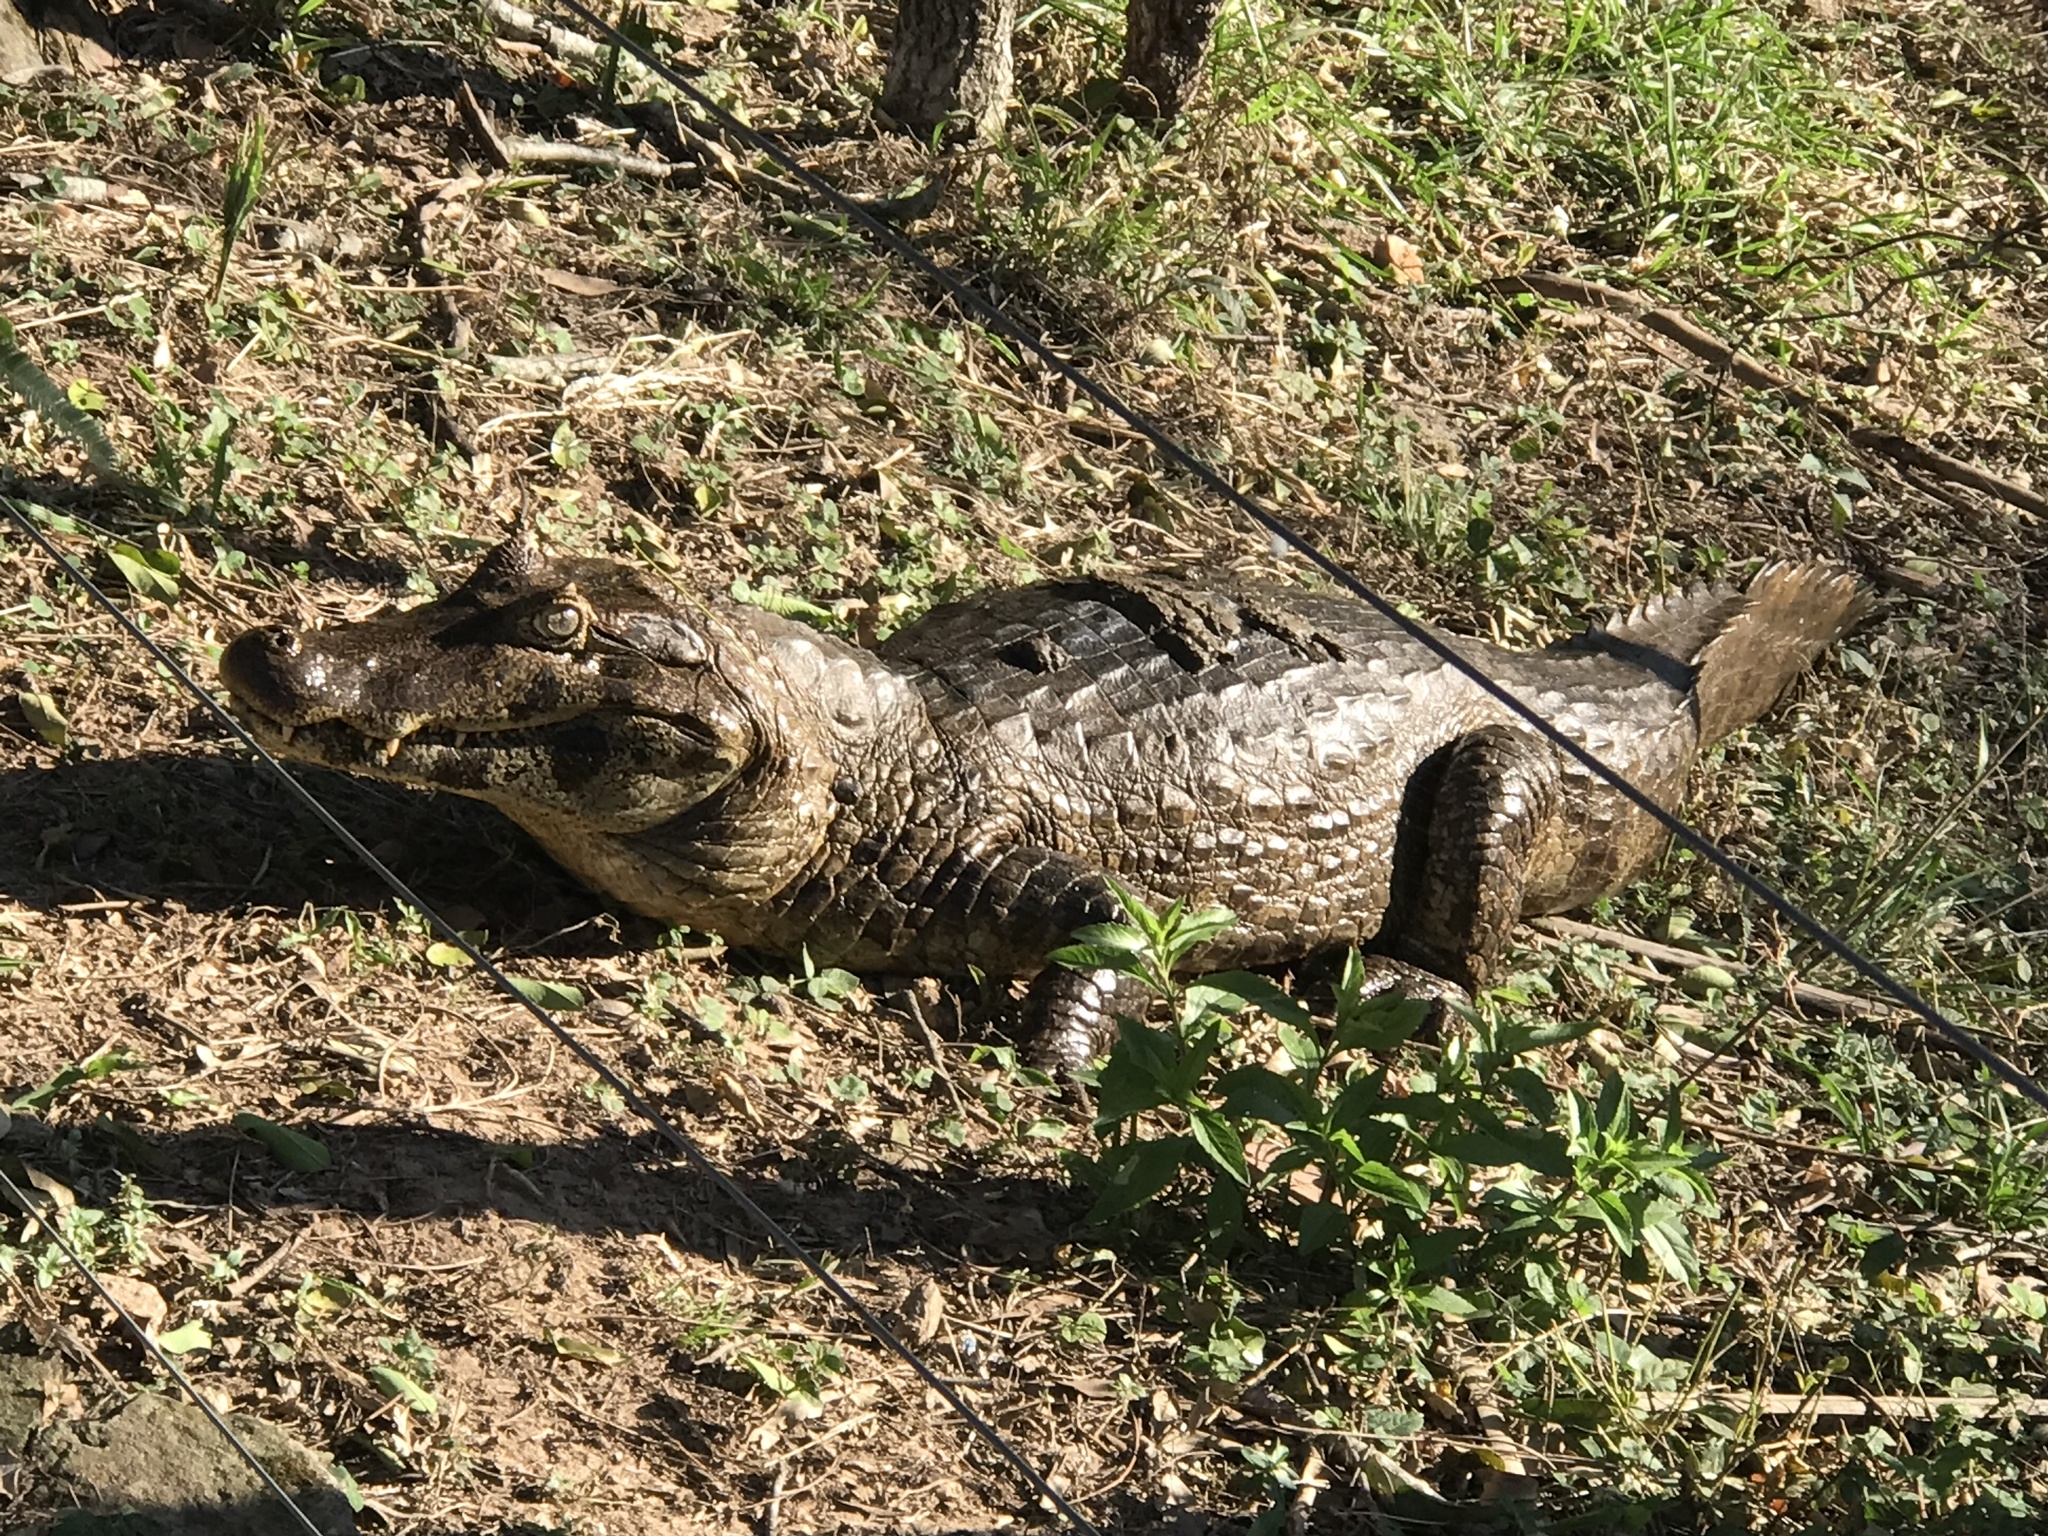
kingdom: Animalia
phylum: Chordata
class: Crocodylia
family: Alligatoridae
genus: Caiman
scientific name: Caiman yacare
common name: Yacare caiman
